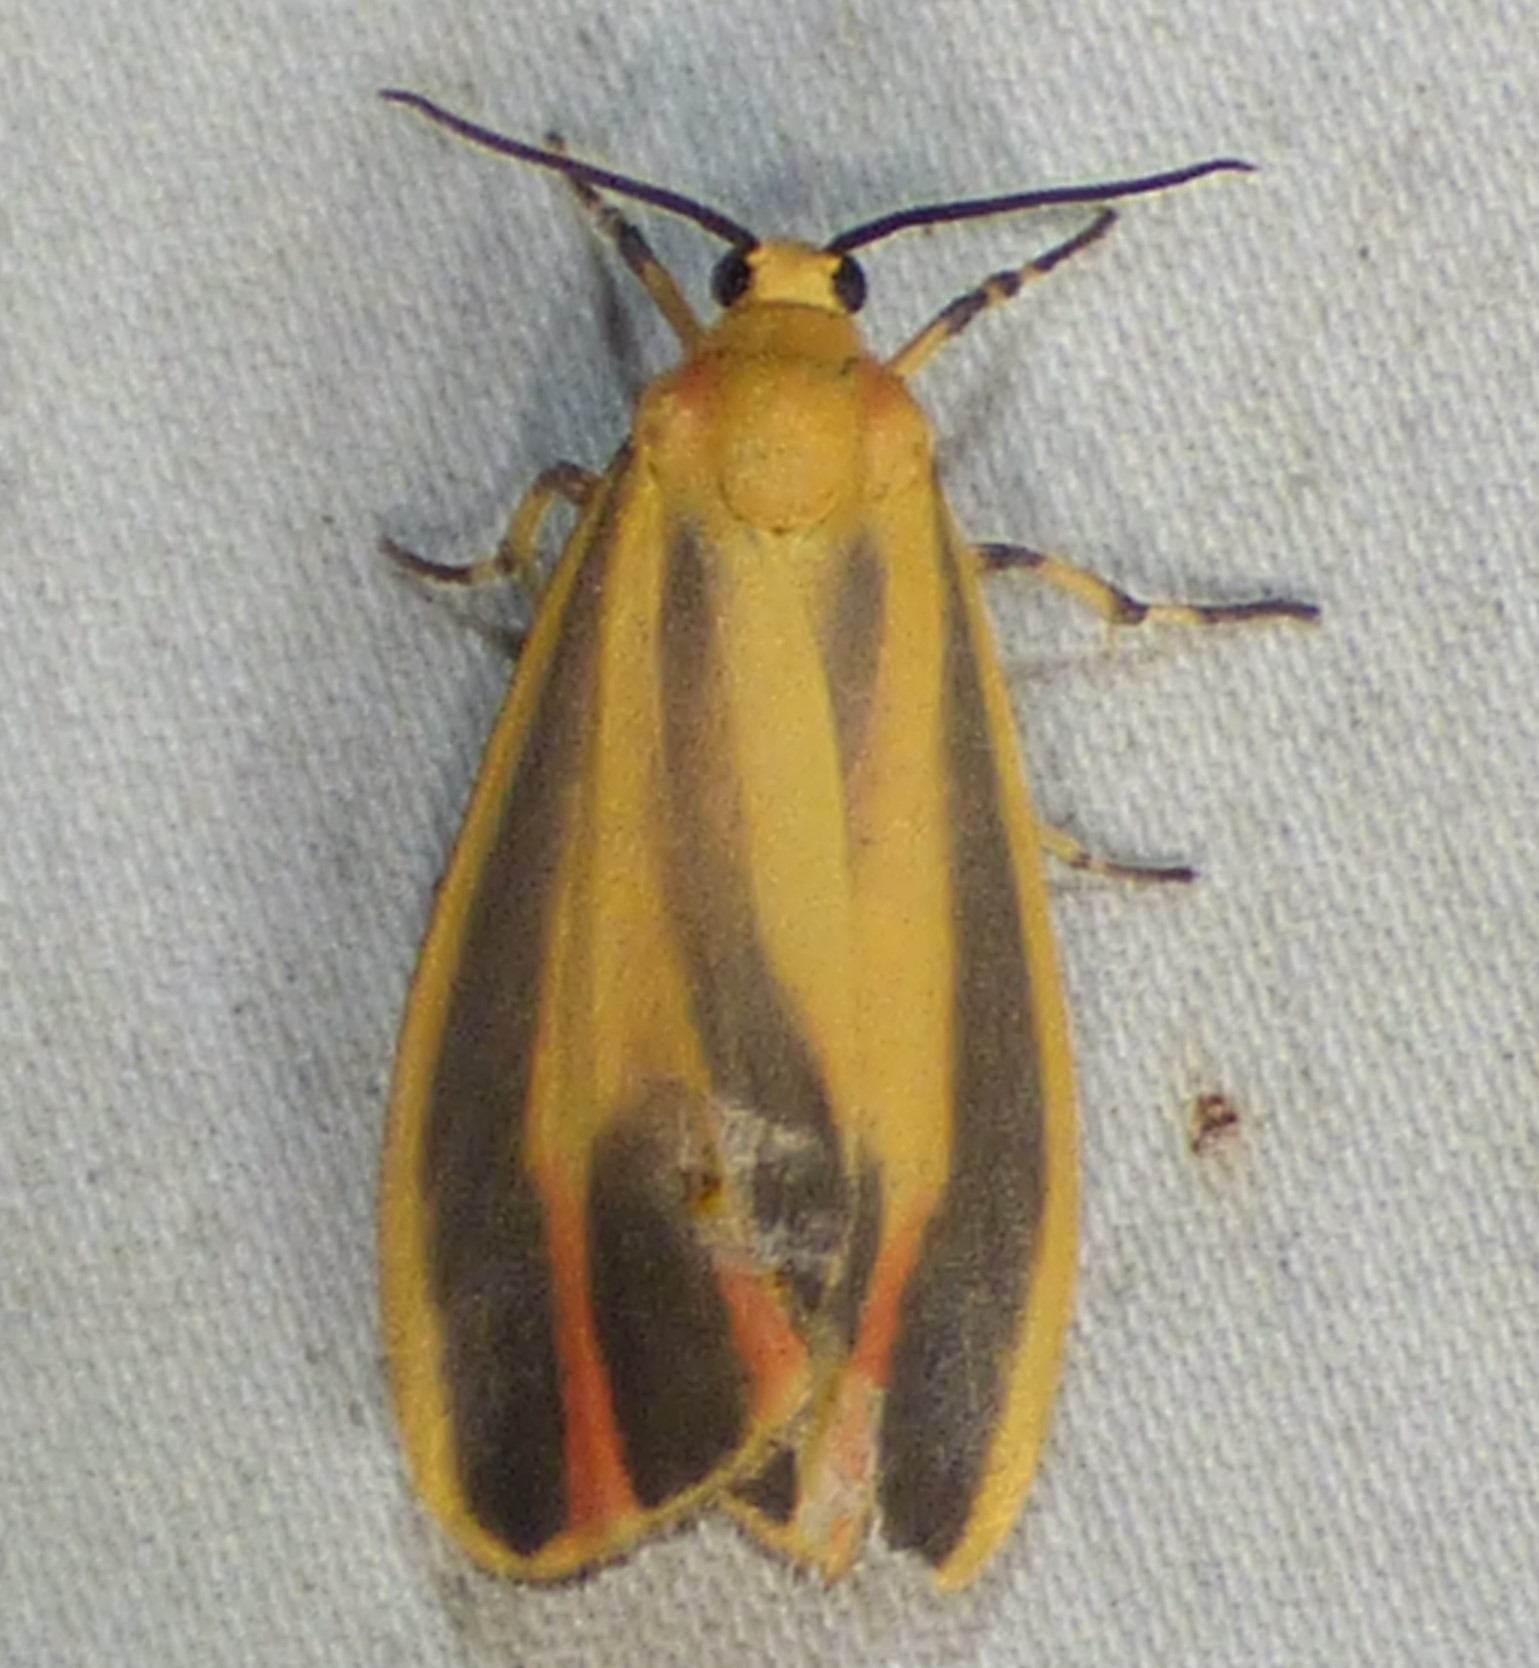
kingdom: Animalia
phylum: Arthropoda
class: Insecta
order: Lepidoptera
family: Erebidae
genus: Hypoprepia
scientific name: Hypoprepia fucosa
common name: Painted lichen moth
